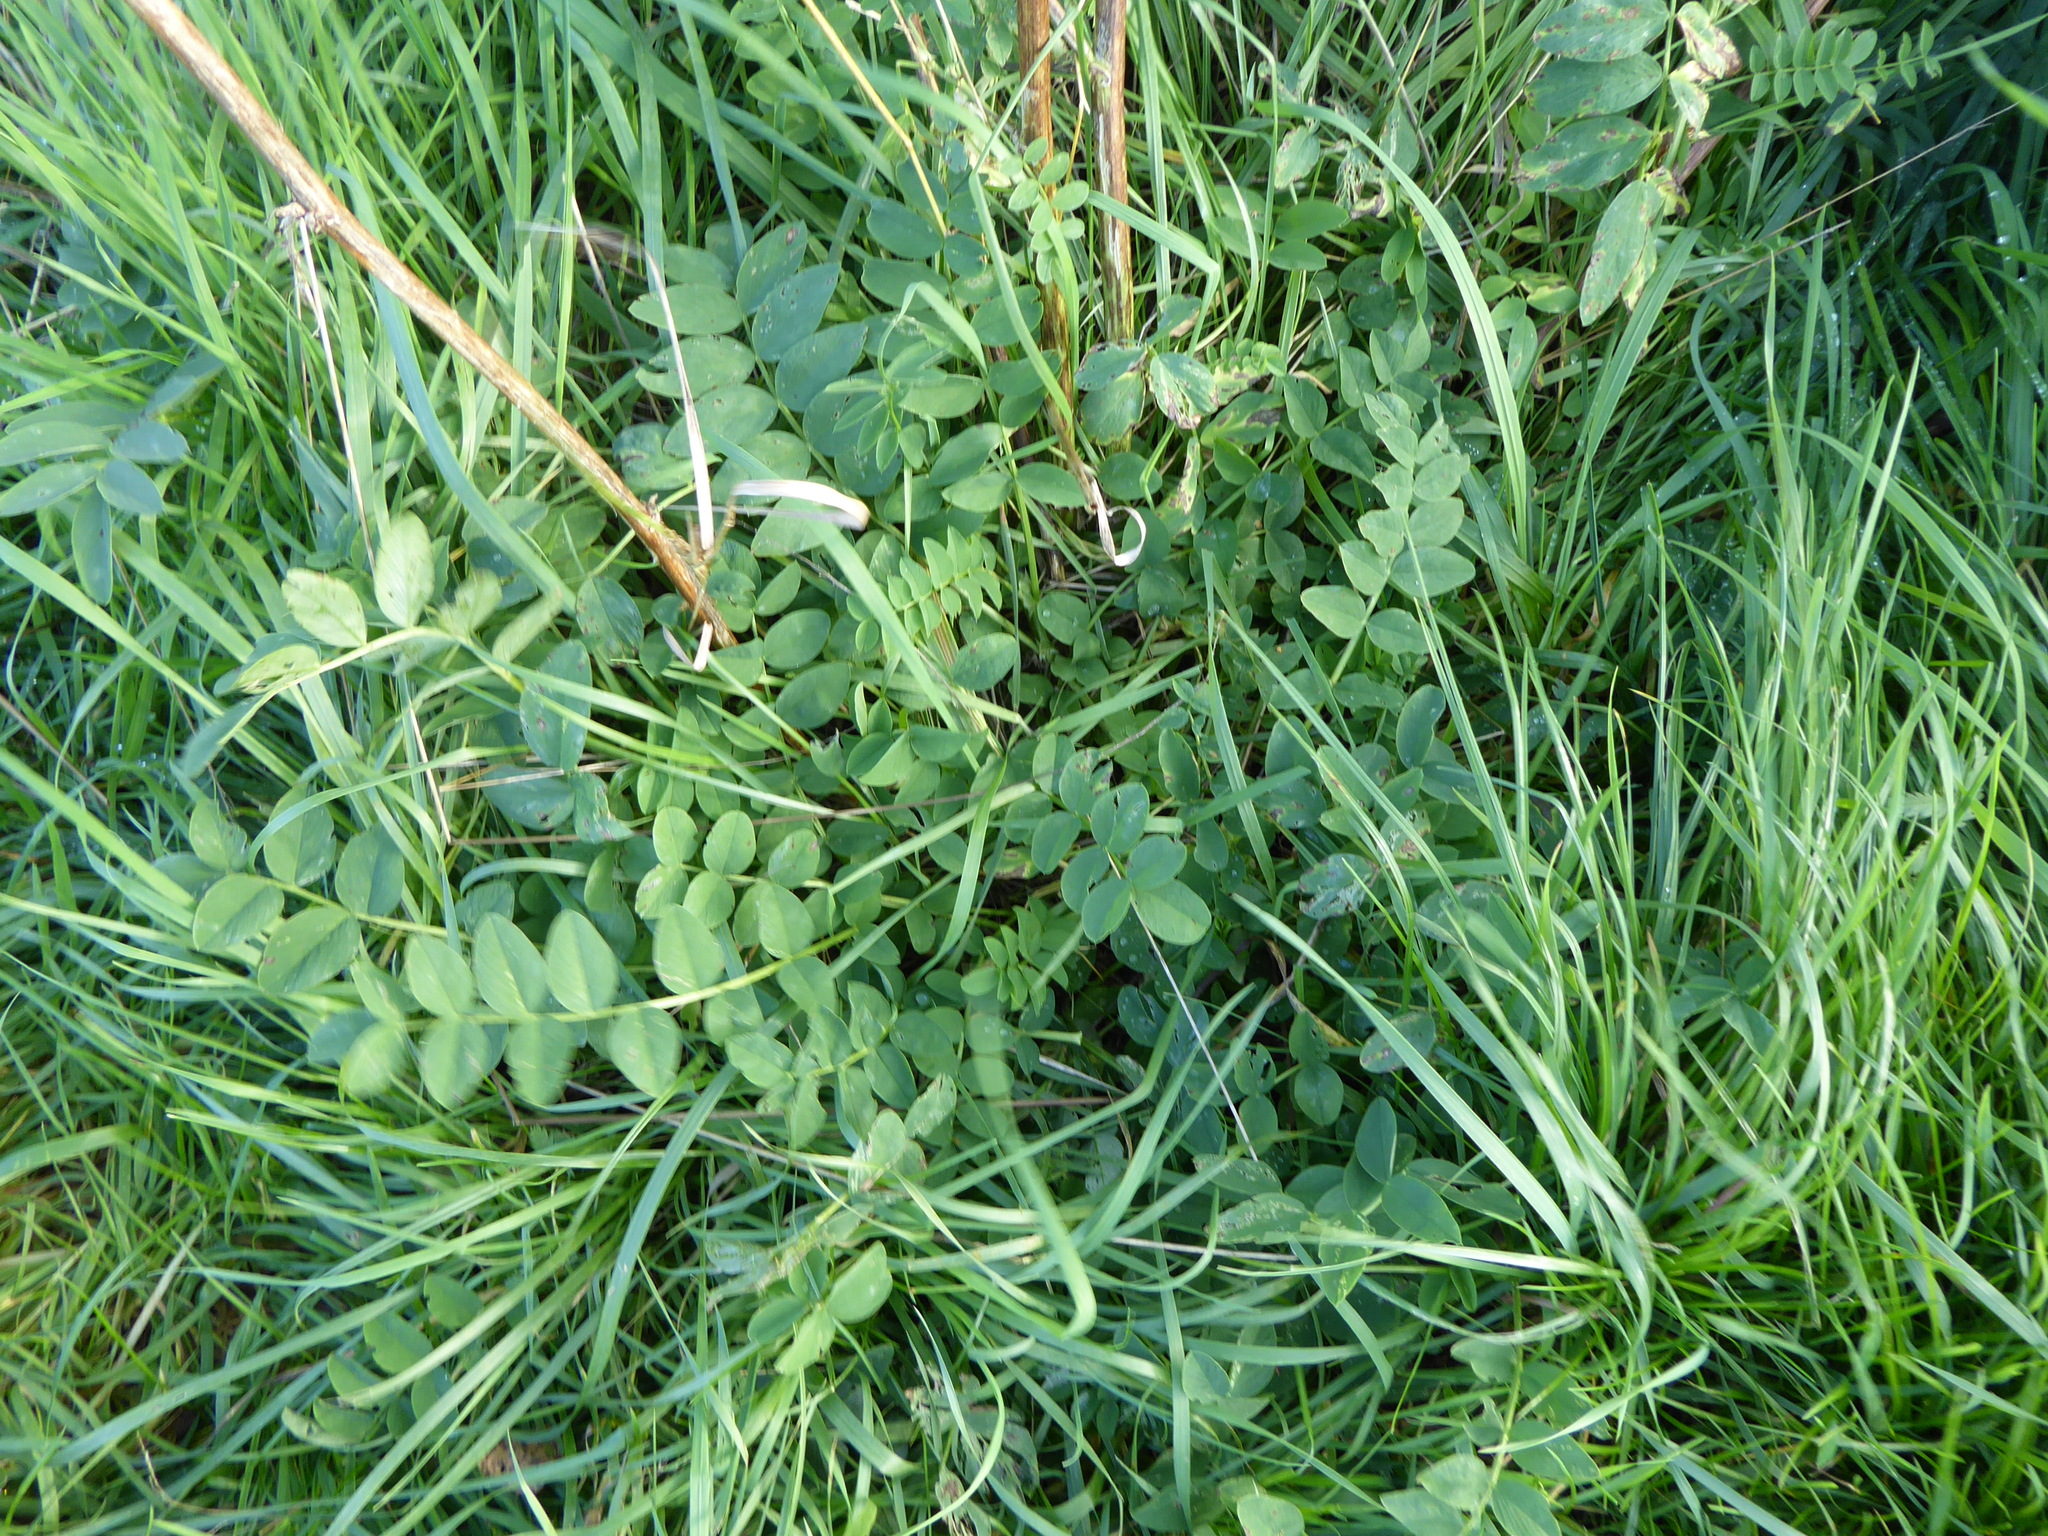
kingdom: Plantae
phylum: Tracheophyta
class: Magnoliopsida
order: Fabales
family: Fabaceae
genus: Galega
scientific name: Galega officinalis
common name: Goat's-rue
